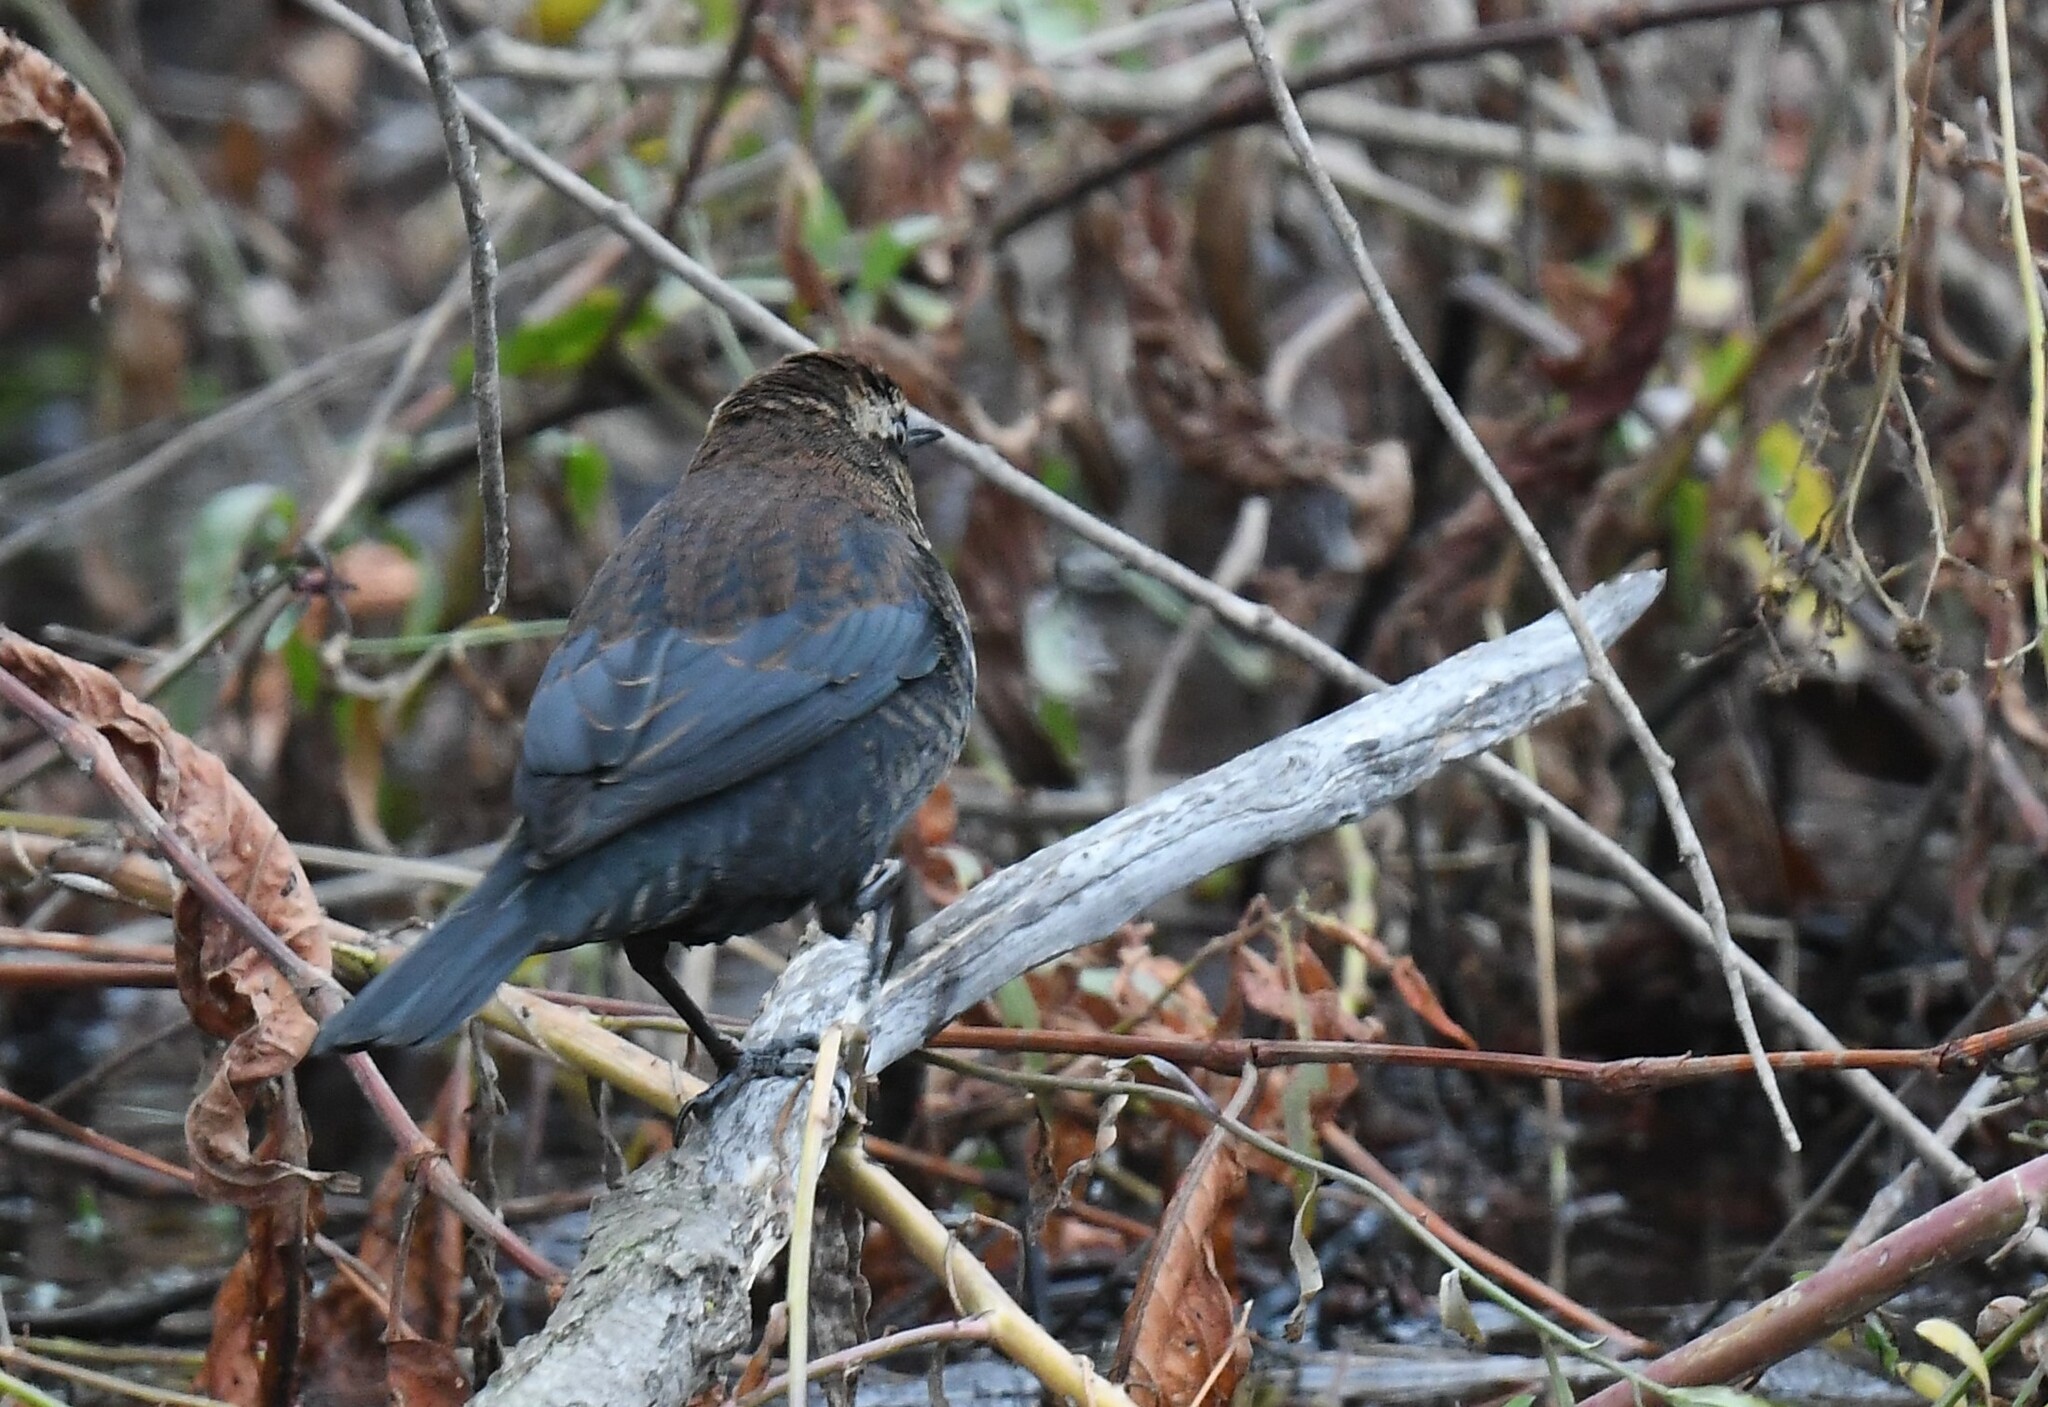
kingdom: Animalia
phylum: Chordata
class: Aves
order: Passeriformes
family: Icteridae
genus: Euphagus
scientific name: Euphagus carolinus
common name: Rusty blackbird
